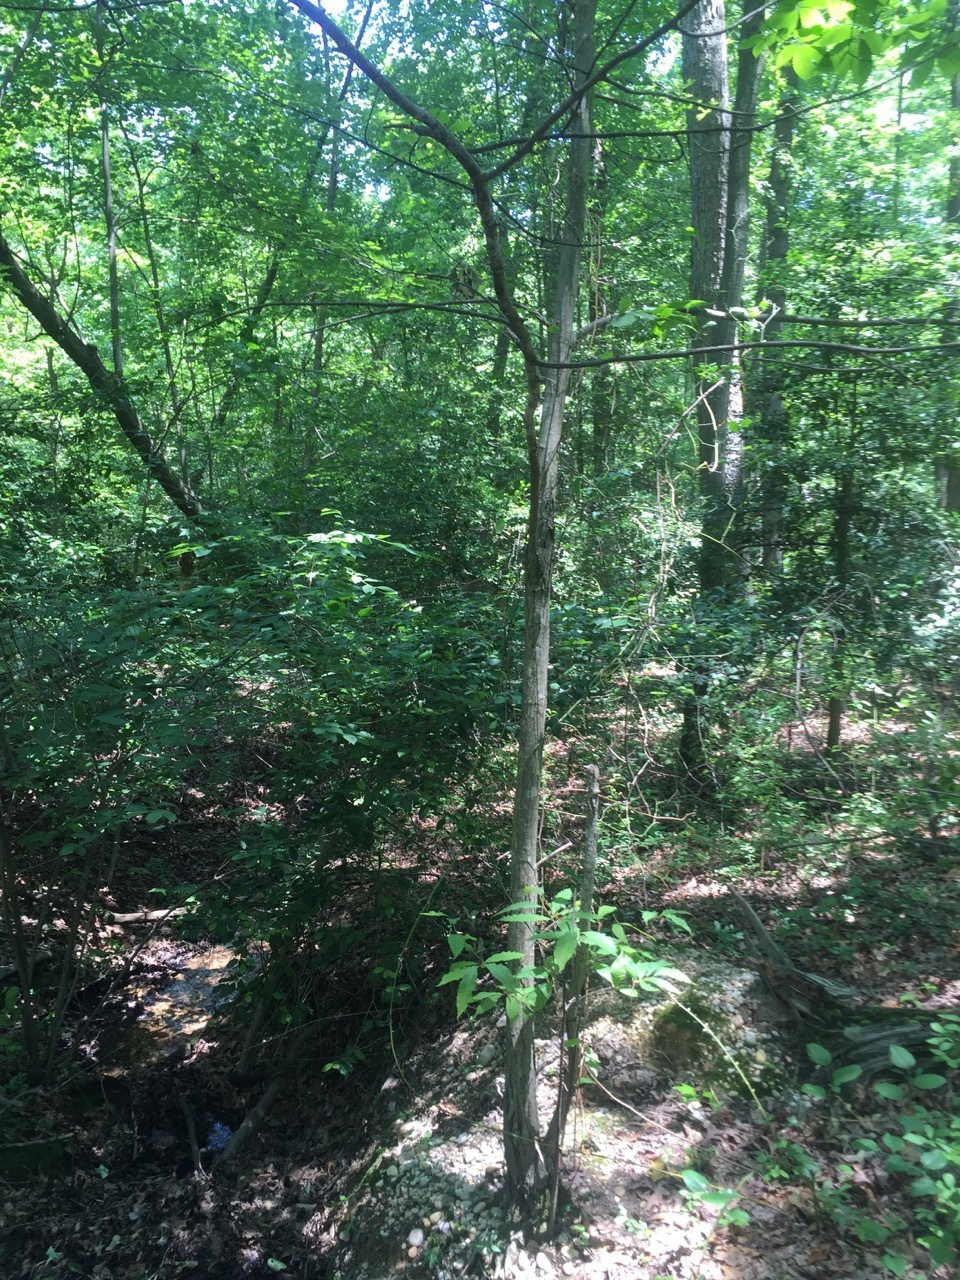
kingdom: Plantae
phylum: Tracheophyta
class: Magnoliopsida
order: Fagales
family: Fagaceae
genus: Castanea
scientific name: Castanea dentata
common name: American chestnut
